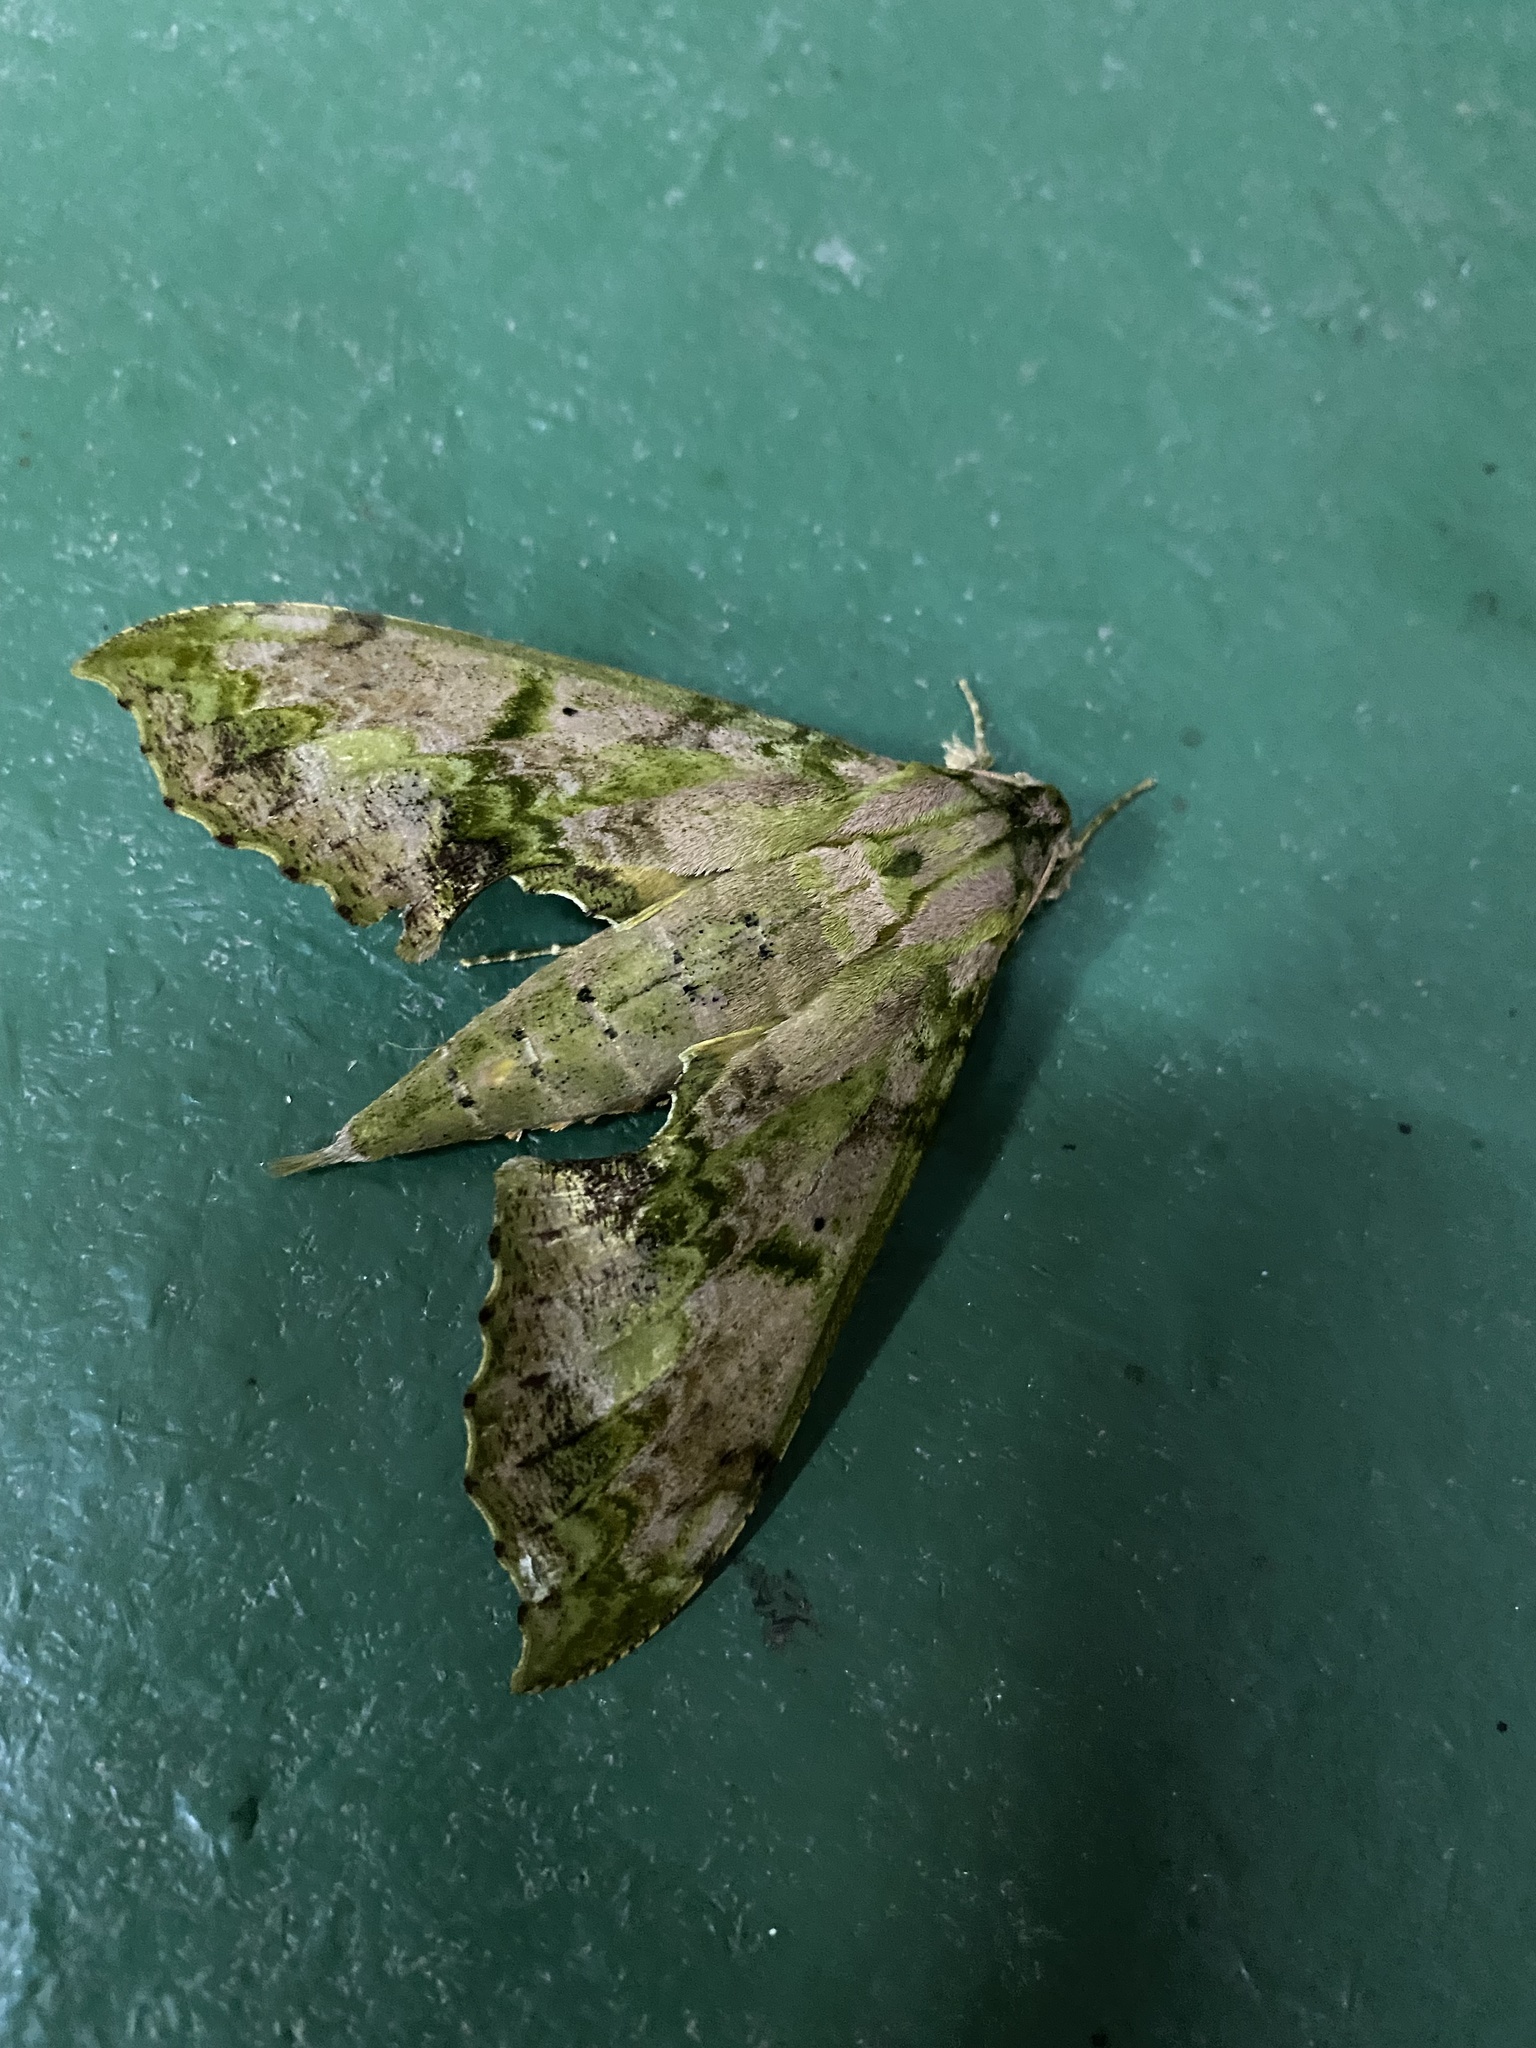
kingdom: Animalia
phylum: Arthropoda
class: Insecta
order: Lepidoptera
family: Sphingidae
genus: Xylophanes
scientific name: Xylophanes zurcheri
